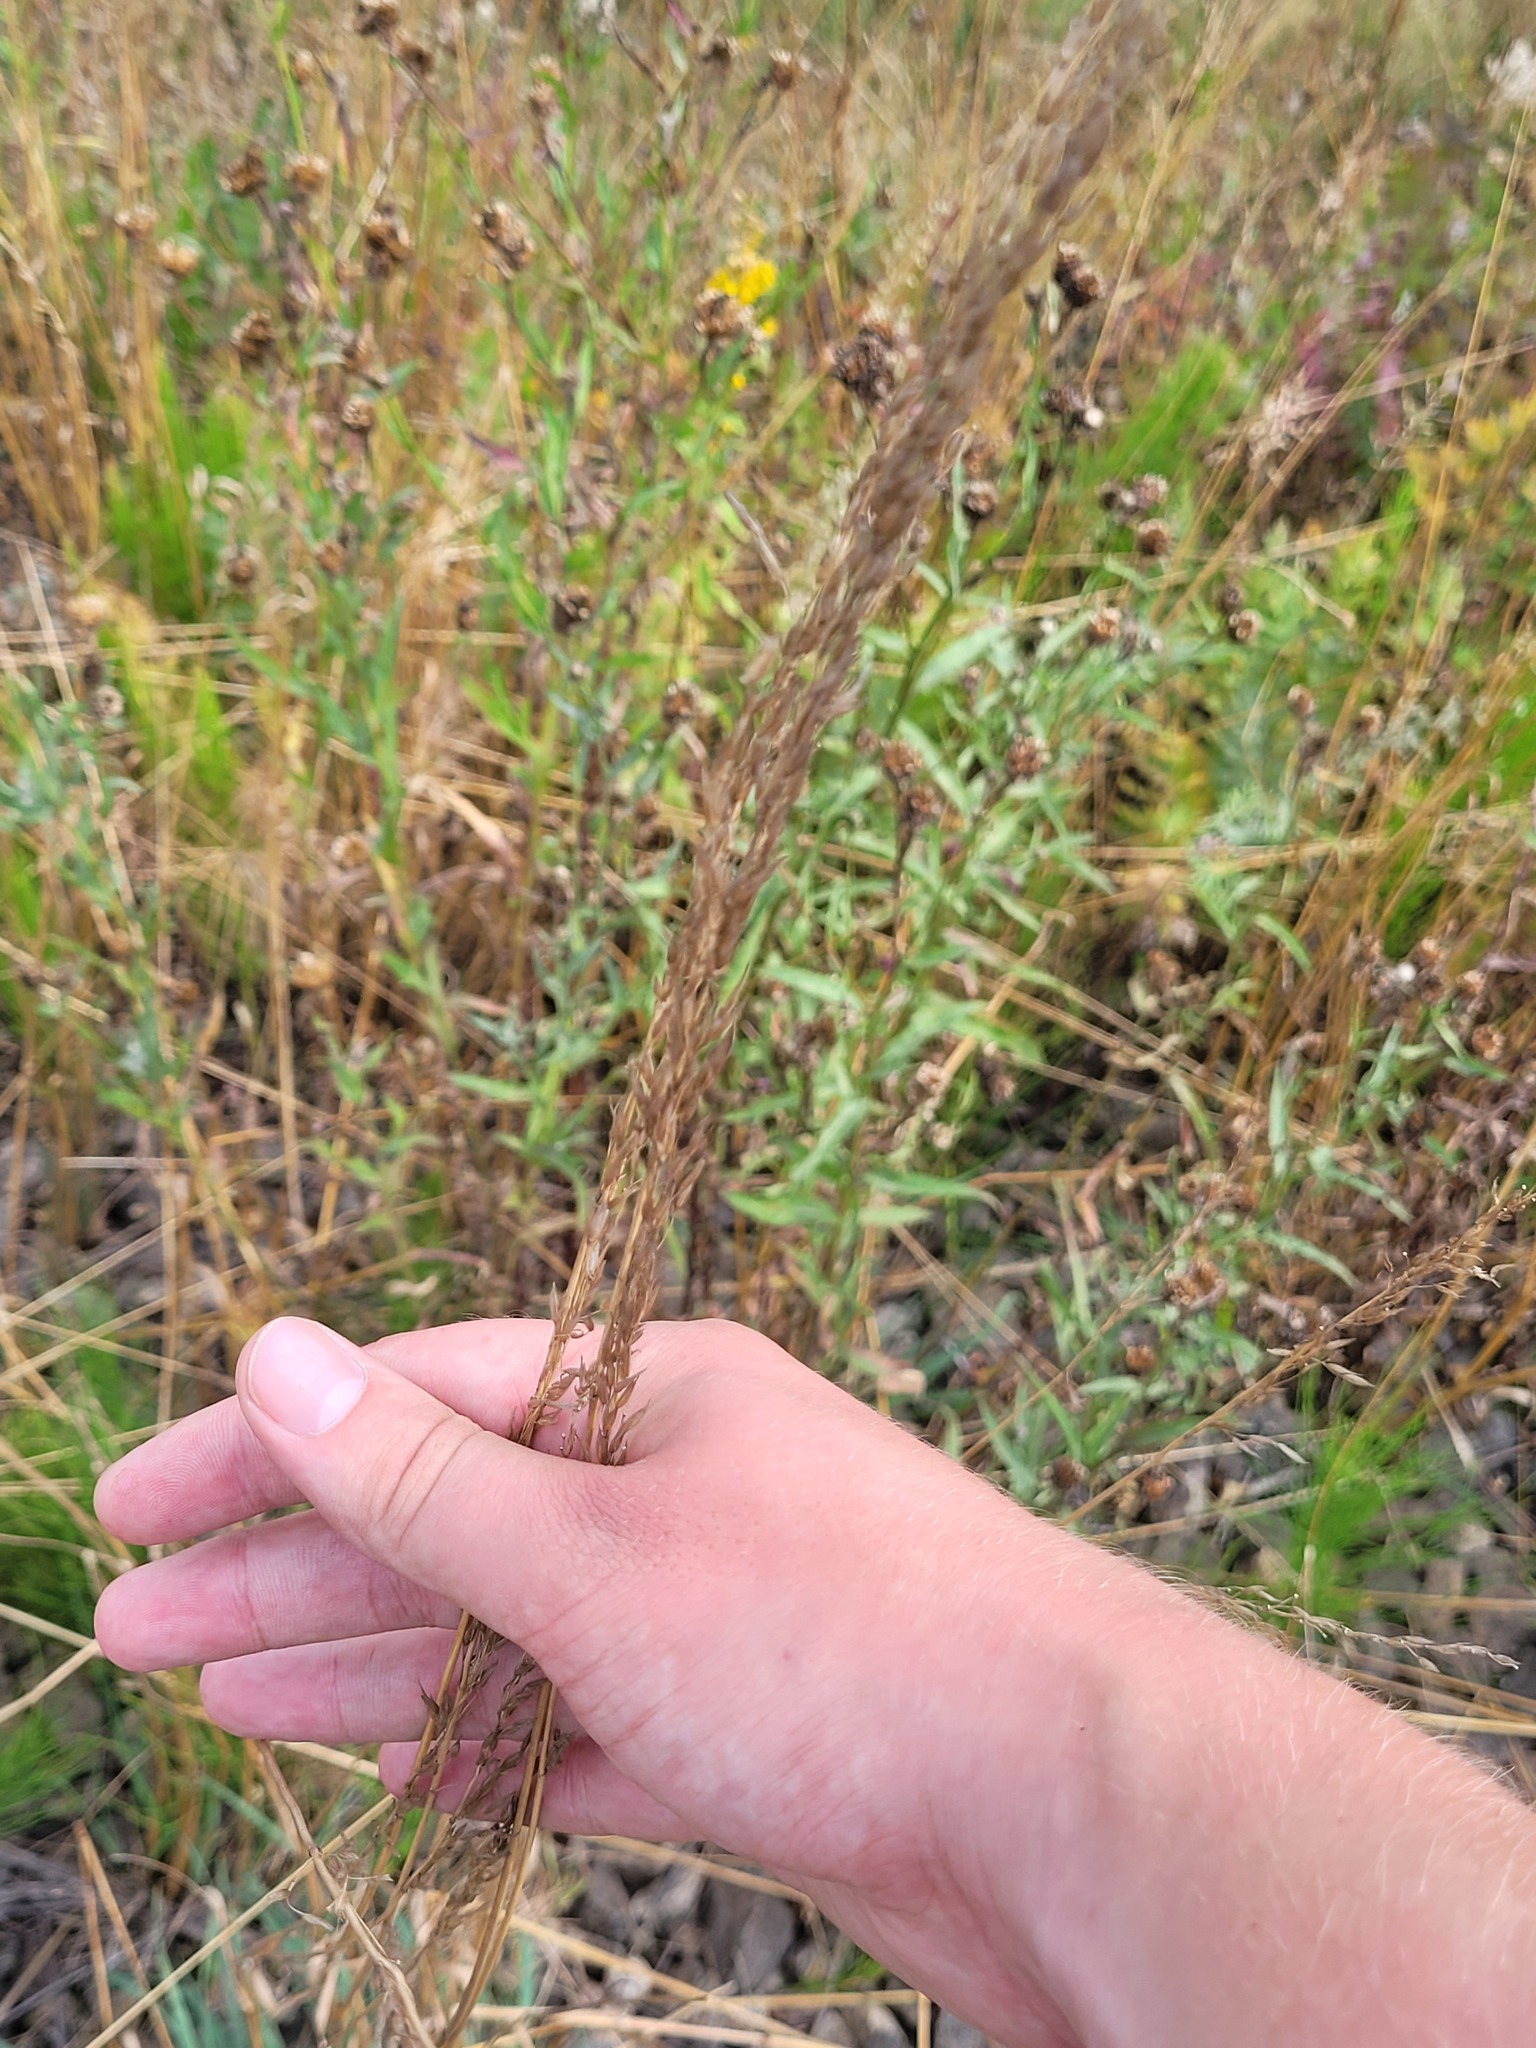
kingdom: Plantae
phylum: Tracheophyta
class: Liliopsida
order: Poales
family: Poaceae
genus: Arrhenatherum
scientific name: Arrhenatherum elatius
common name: Tall oatgrass
